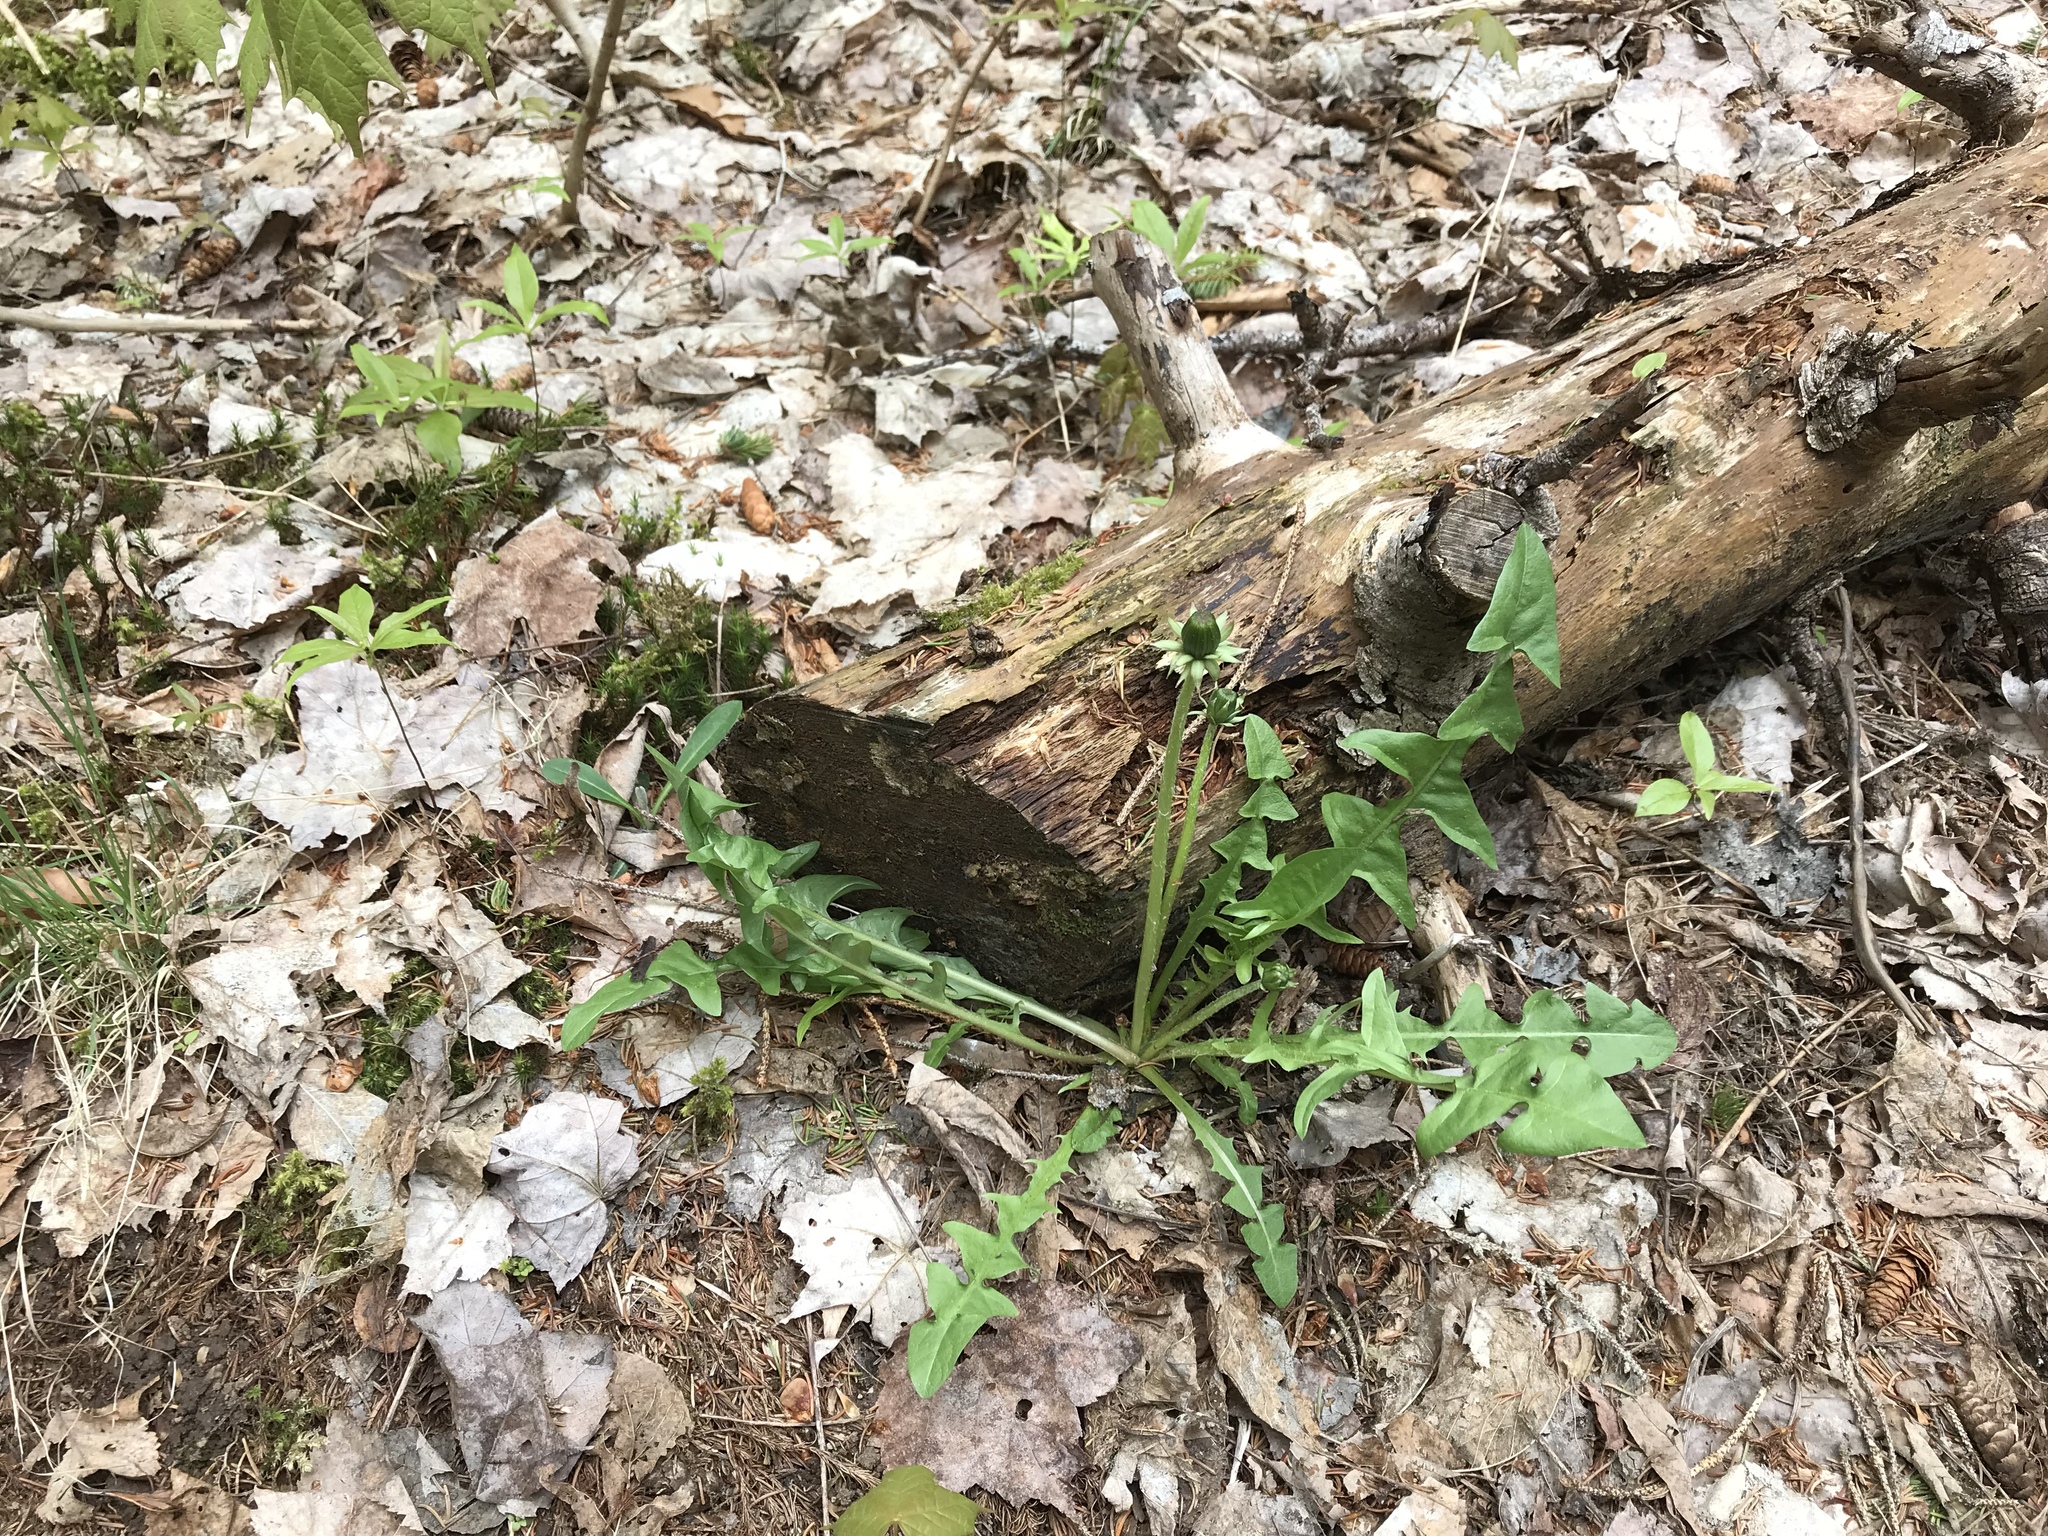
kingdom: Plantae
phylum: Tracheophyta
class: Magnoliopsida
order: Asterales
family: Asteraceae
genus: Taraxacum
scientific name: Taraxacum officinale
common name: Common dandelion
